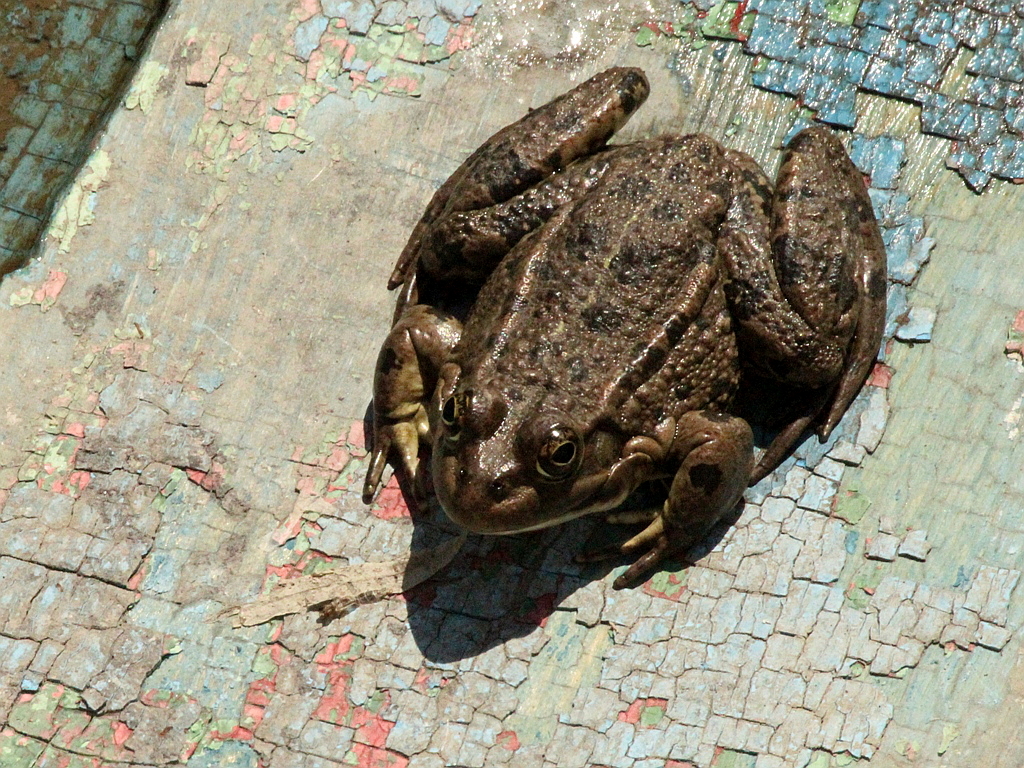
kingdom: Animalia
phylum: Chordata
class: Amphibia
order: Anura
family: Ranidae
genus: Pelophylax
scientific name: Pelophylax ridibundus
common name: Marsh frog
